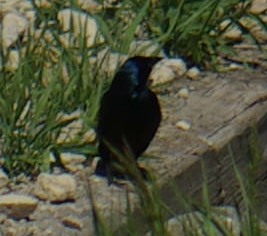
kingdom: Animalia
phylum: Chordata
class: Aves
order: Passeriformes
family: Icteridae
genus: Quiscalus
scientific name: Quiscalus quiscula
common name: Common grackle
